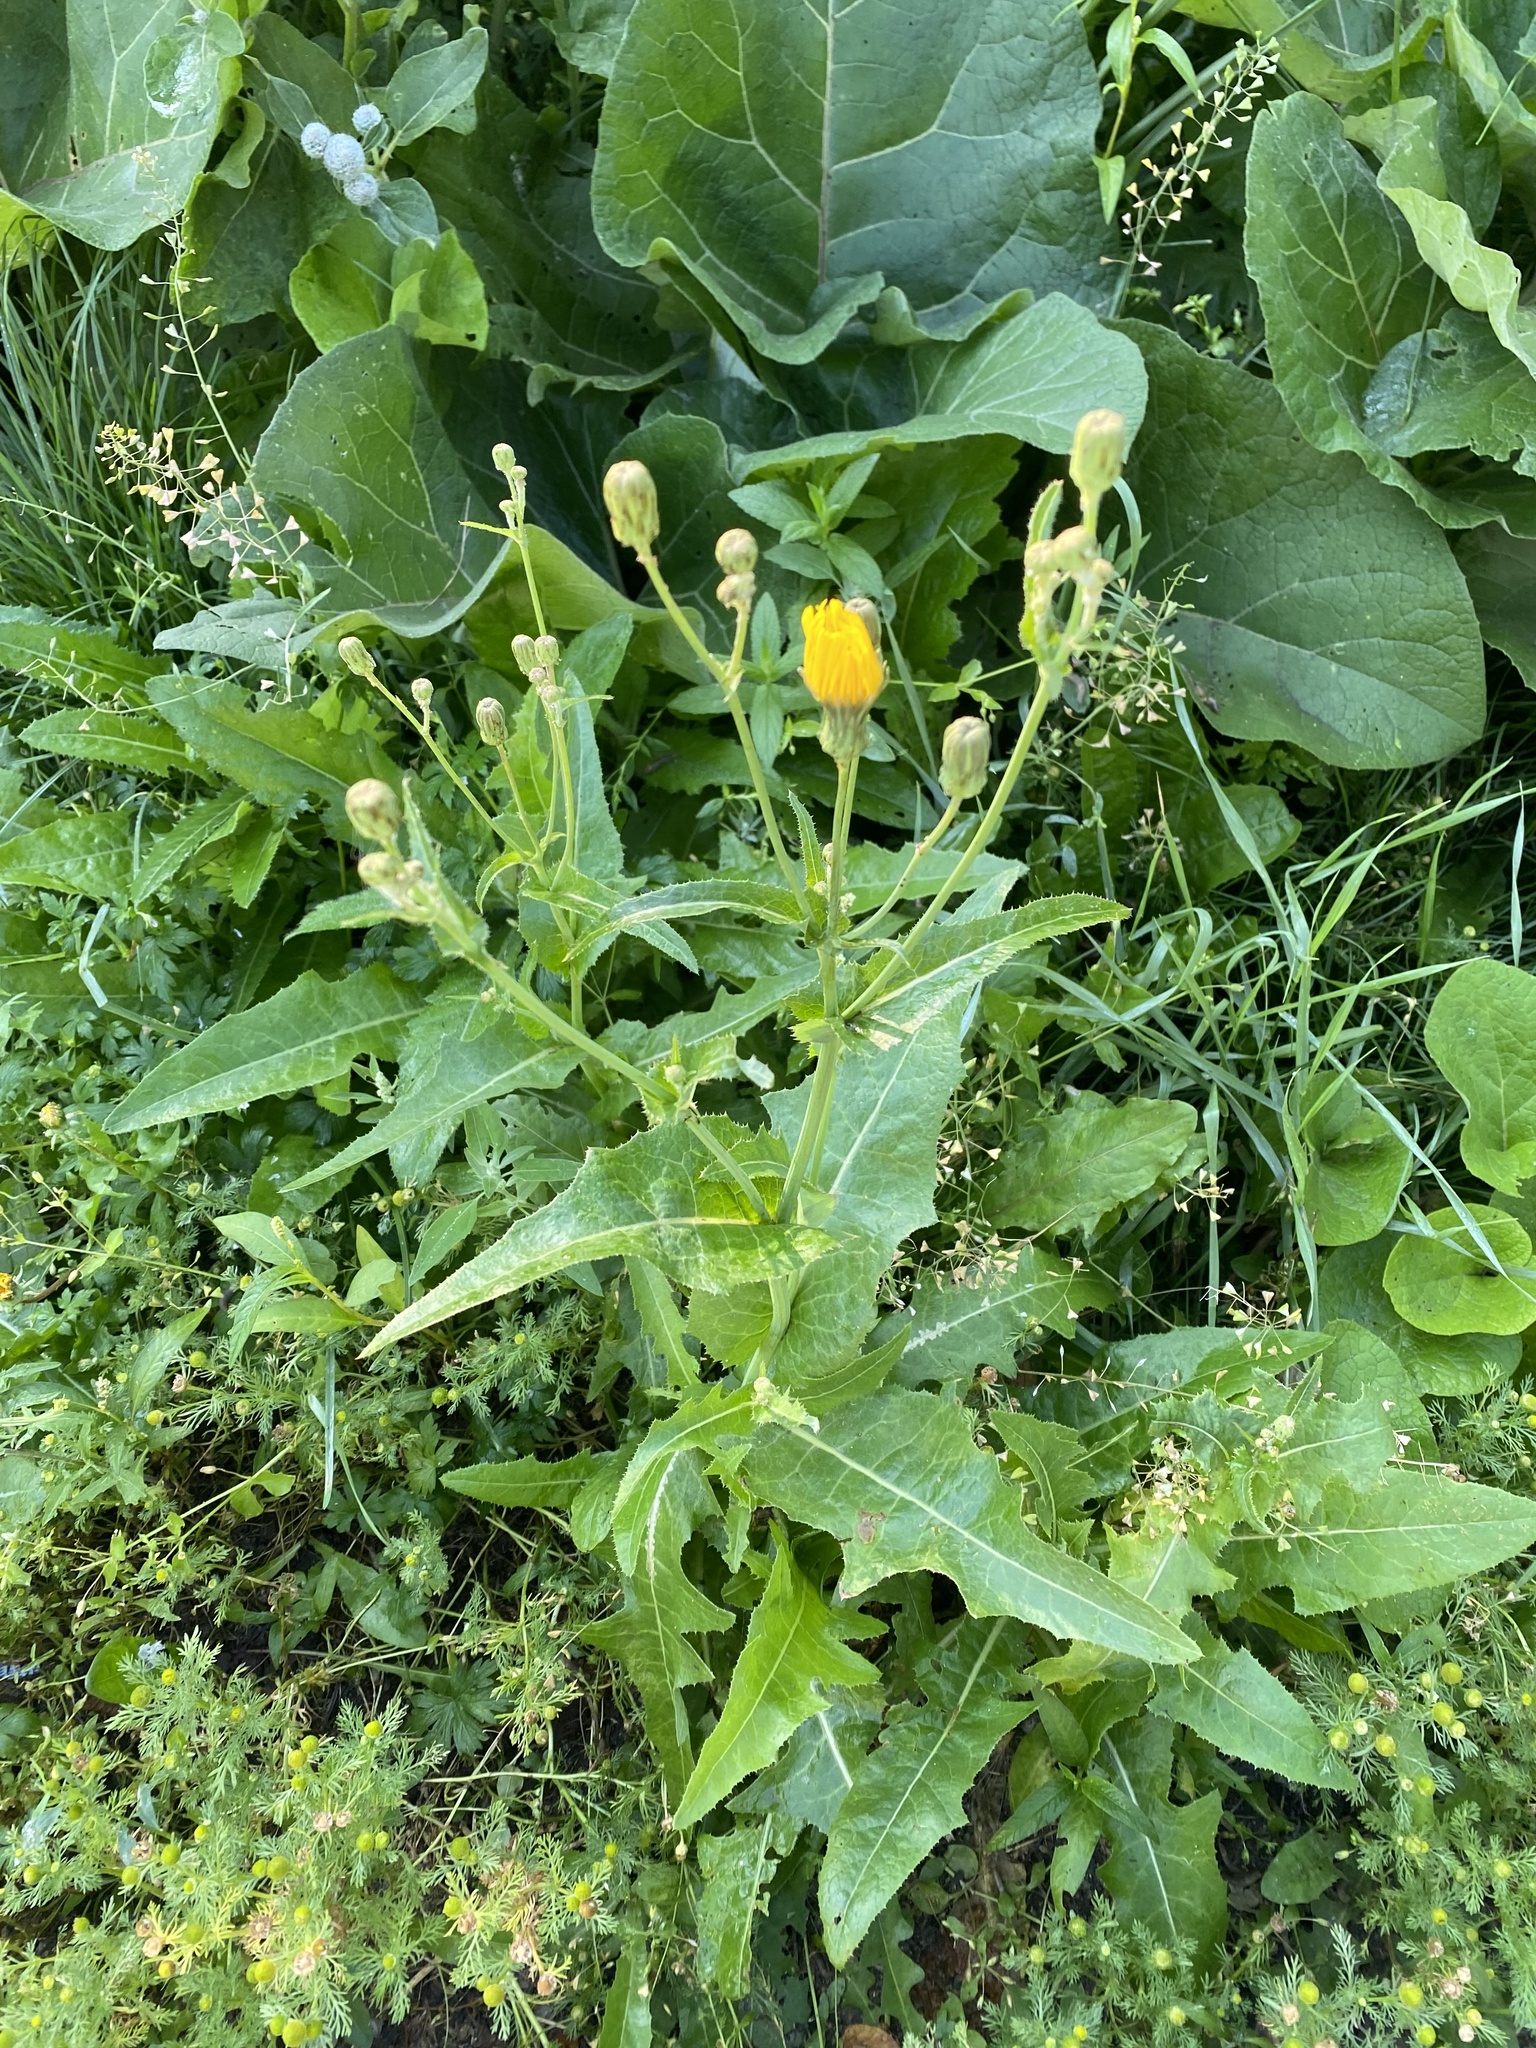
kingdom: Plantae
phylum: Tracheophyta
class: Magnoliopsida
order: Asterales
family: Asteraceae
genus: Sonchus
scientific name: Sonchus arvensis
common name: Perennial sow-thistle
